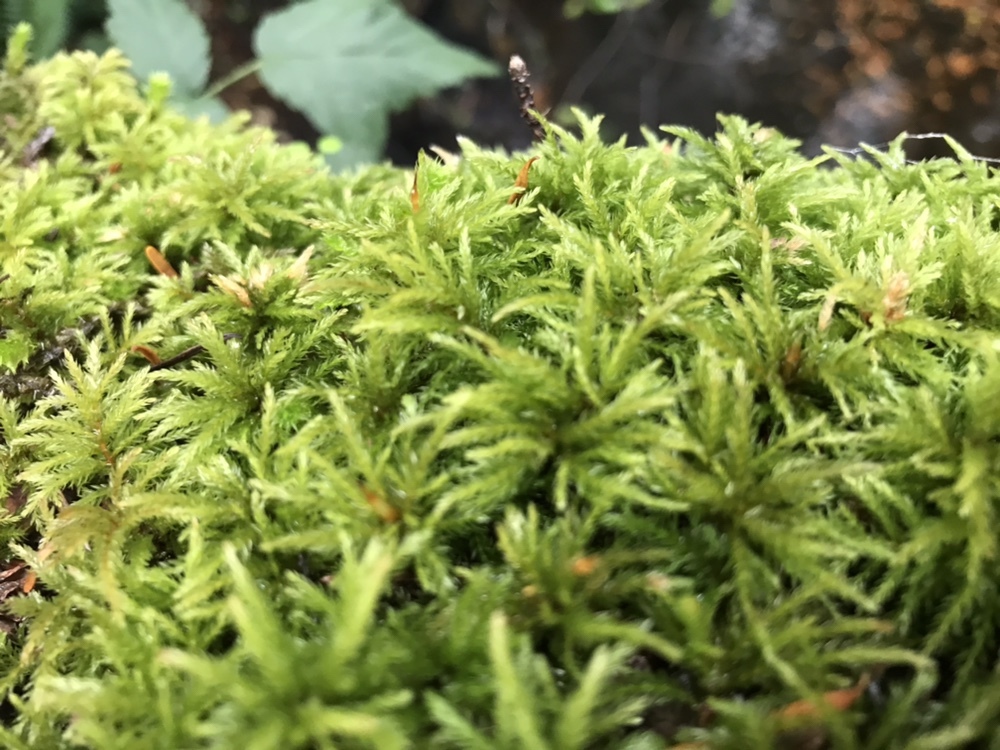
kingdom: Plantae
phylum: Bryophyta
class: Bryopsida
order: Bryales
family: Mniaceae
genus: Leucolepis
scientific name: Leucolepis acanthoneura
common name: Leucolepis umbrella moss
